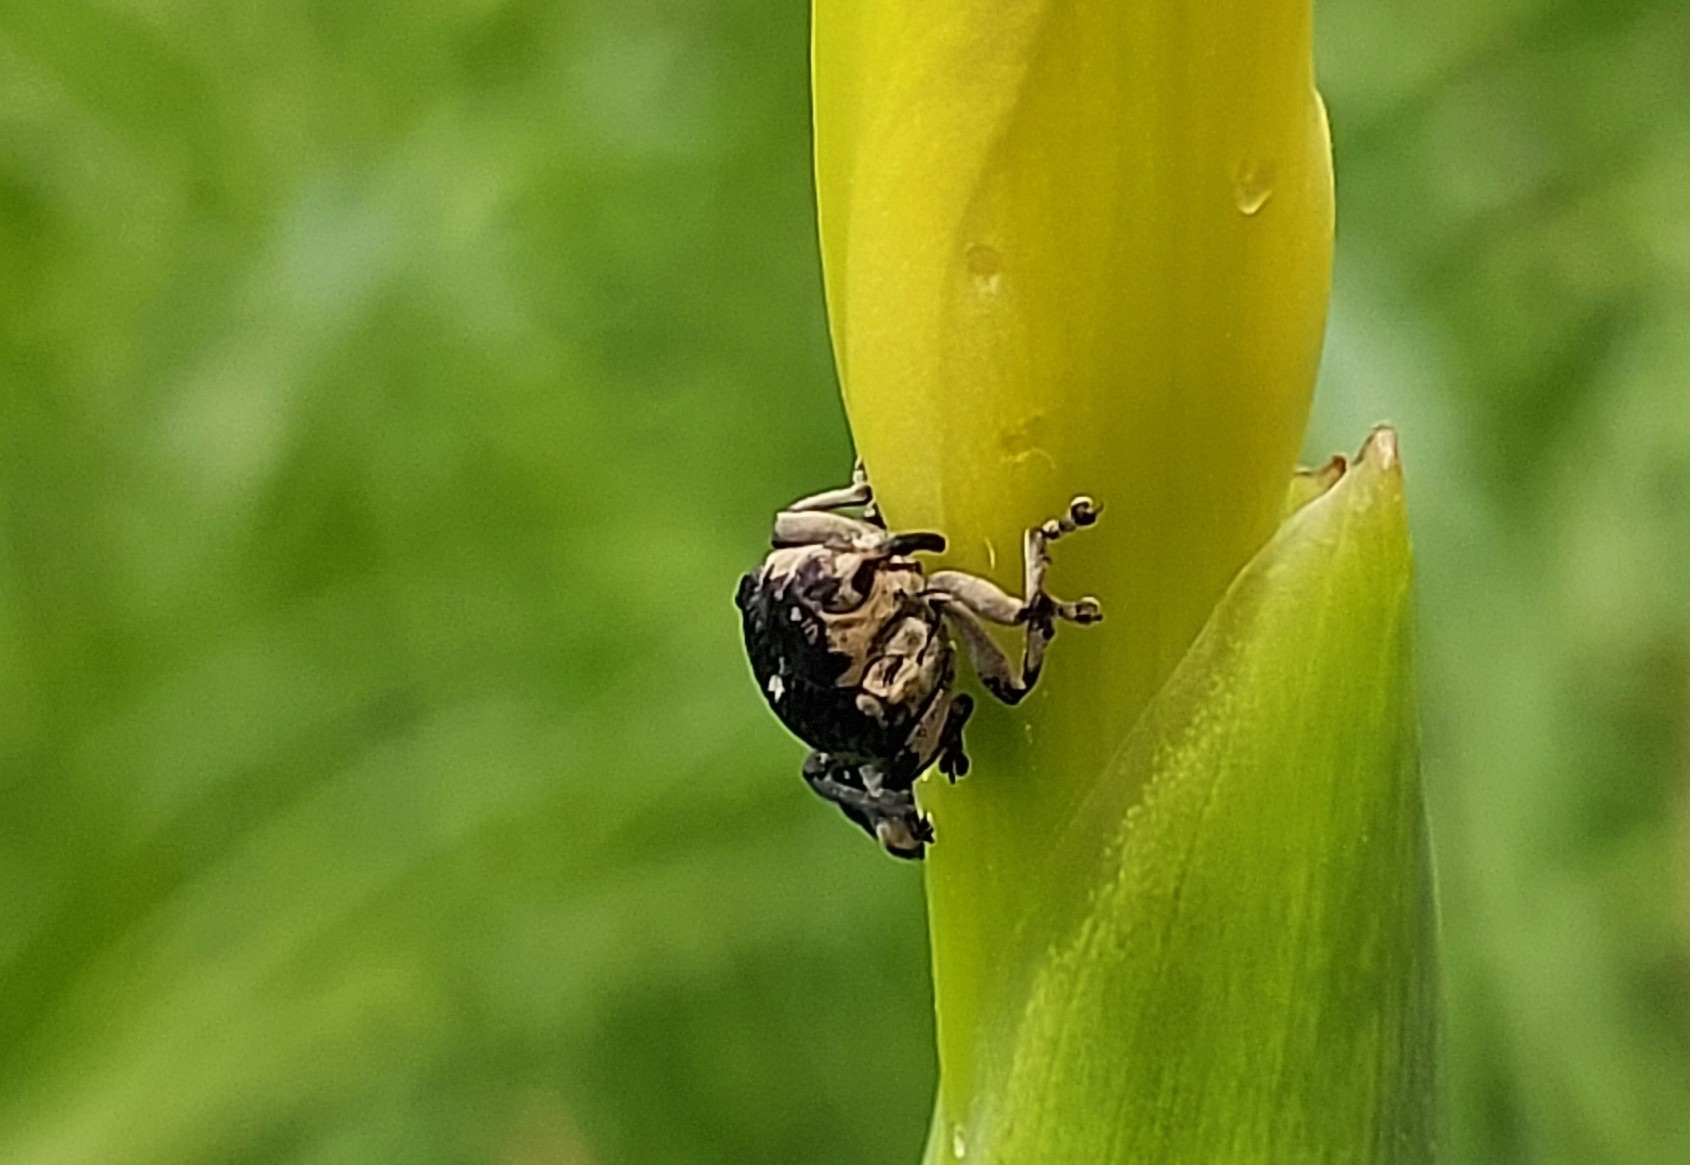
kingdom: Animalia
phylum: Arthropoda
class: Insecta
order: Coleoptera
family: Curculionidae
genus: Mononychus
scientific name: Mononychus punctumalbum
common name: Iris weevil
